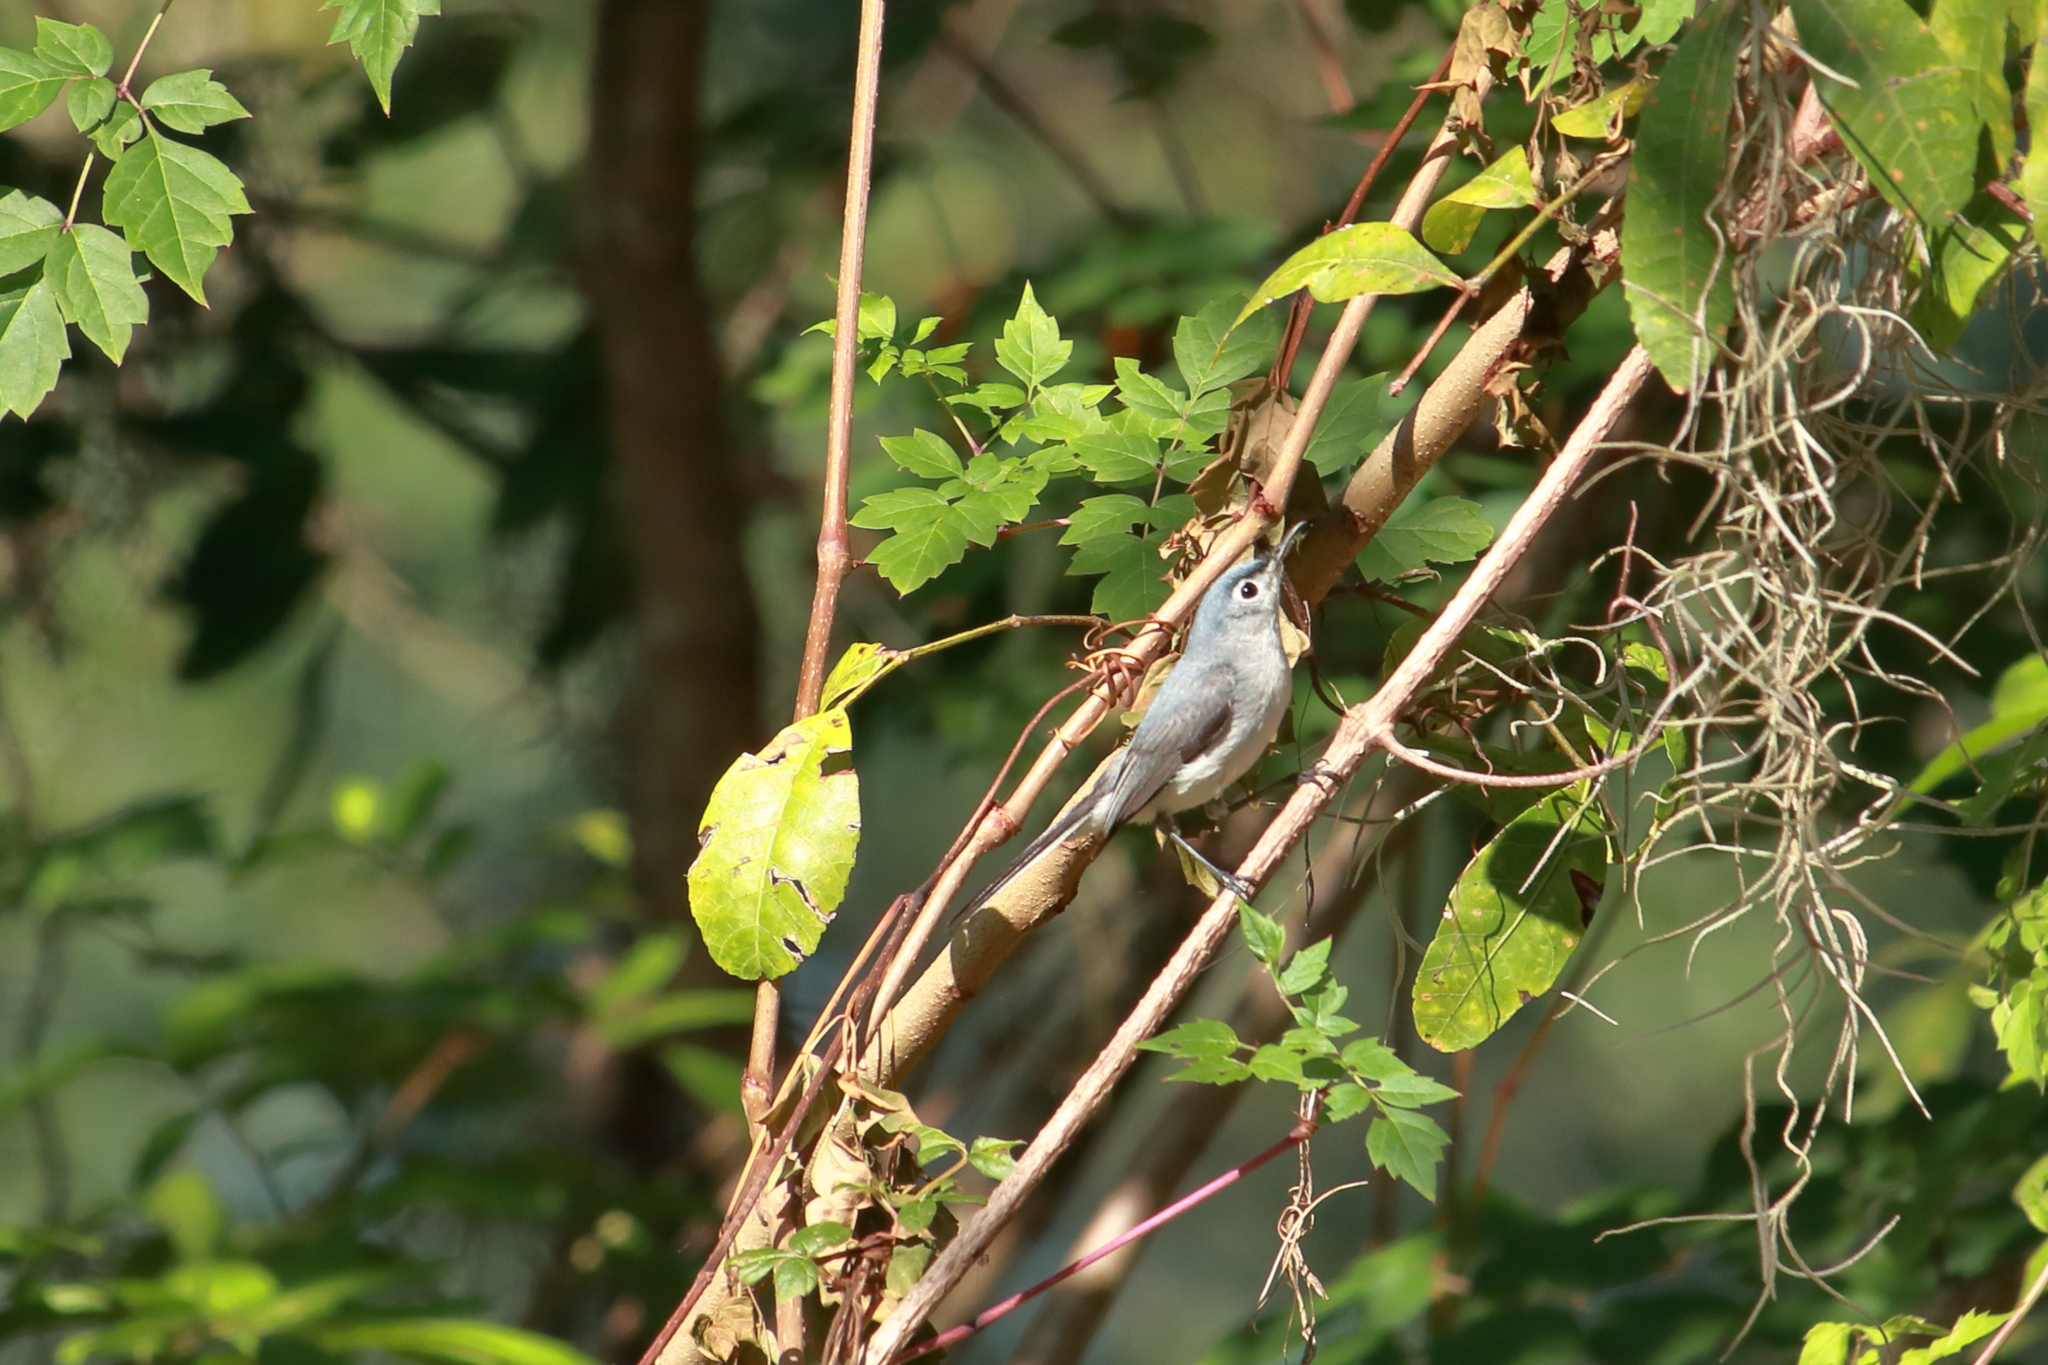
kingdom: Animalia
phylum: Chordata
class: Aves
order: Passeriformes
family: Polioptilidae
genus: Polioptila
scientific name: Polioptila caerulea
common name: Blue-gray gnatcatcher
